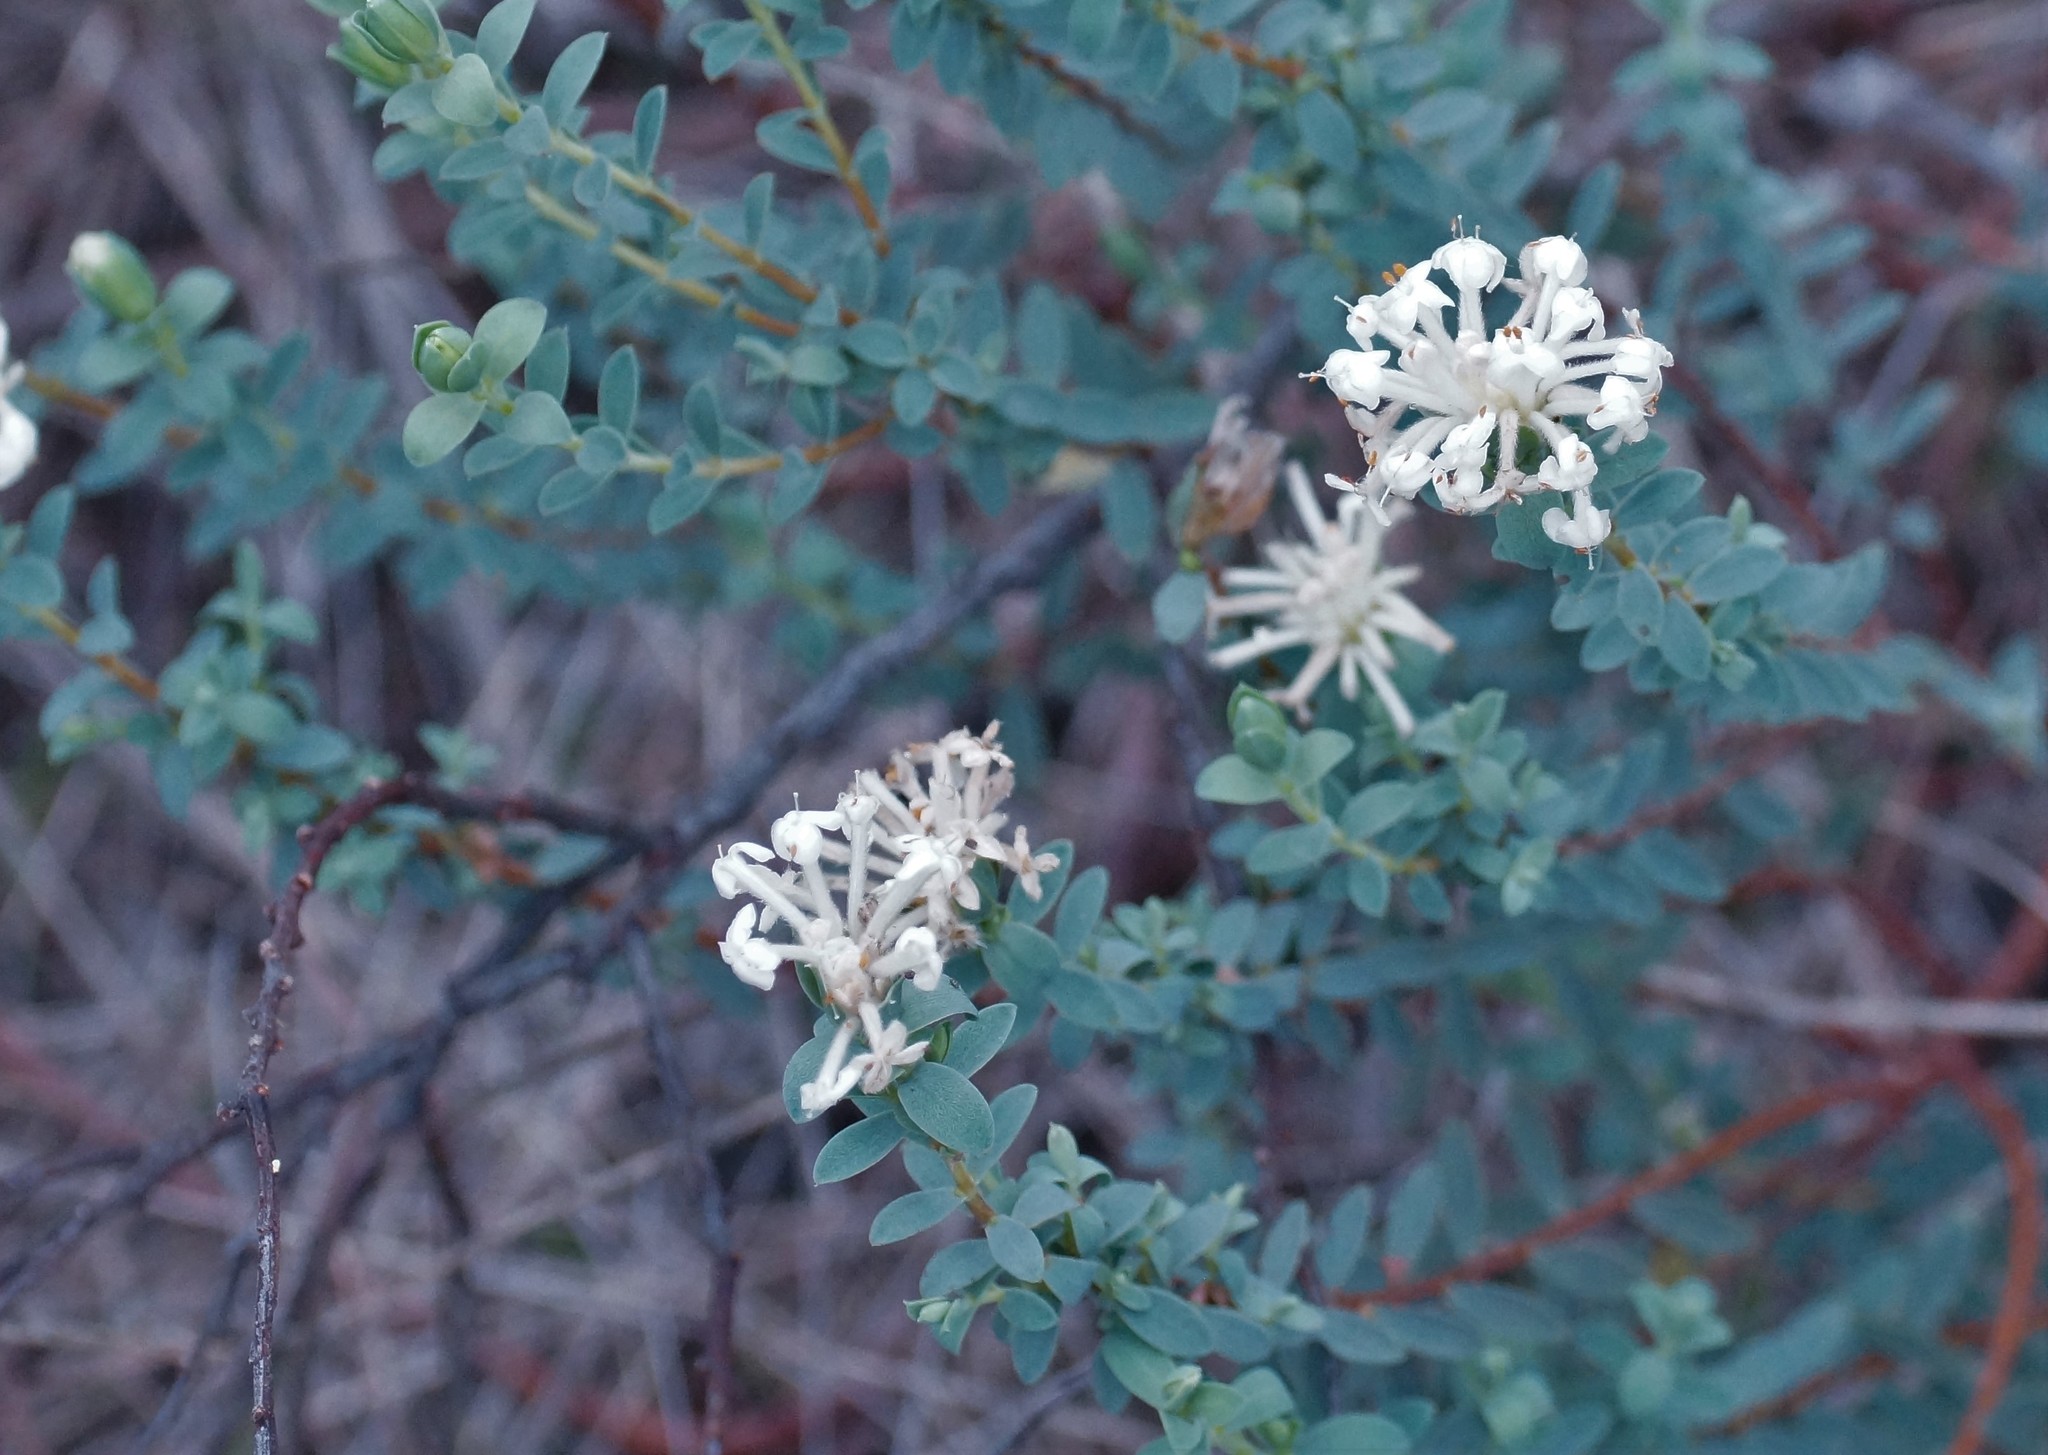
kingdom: Plantae
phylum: Tracheophyta
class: Magnoliopsida
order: Malvales
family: Thymelaeaceae
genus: Pimelea
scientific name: Pimelea glauca
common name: Smooth riceflower
